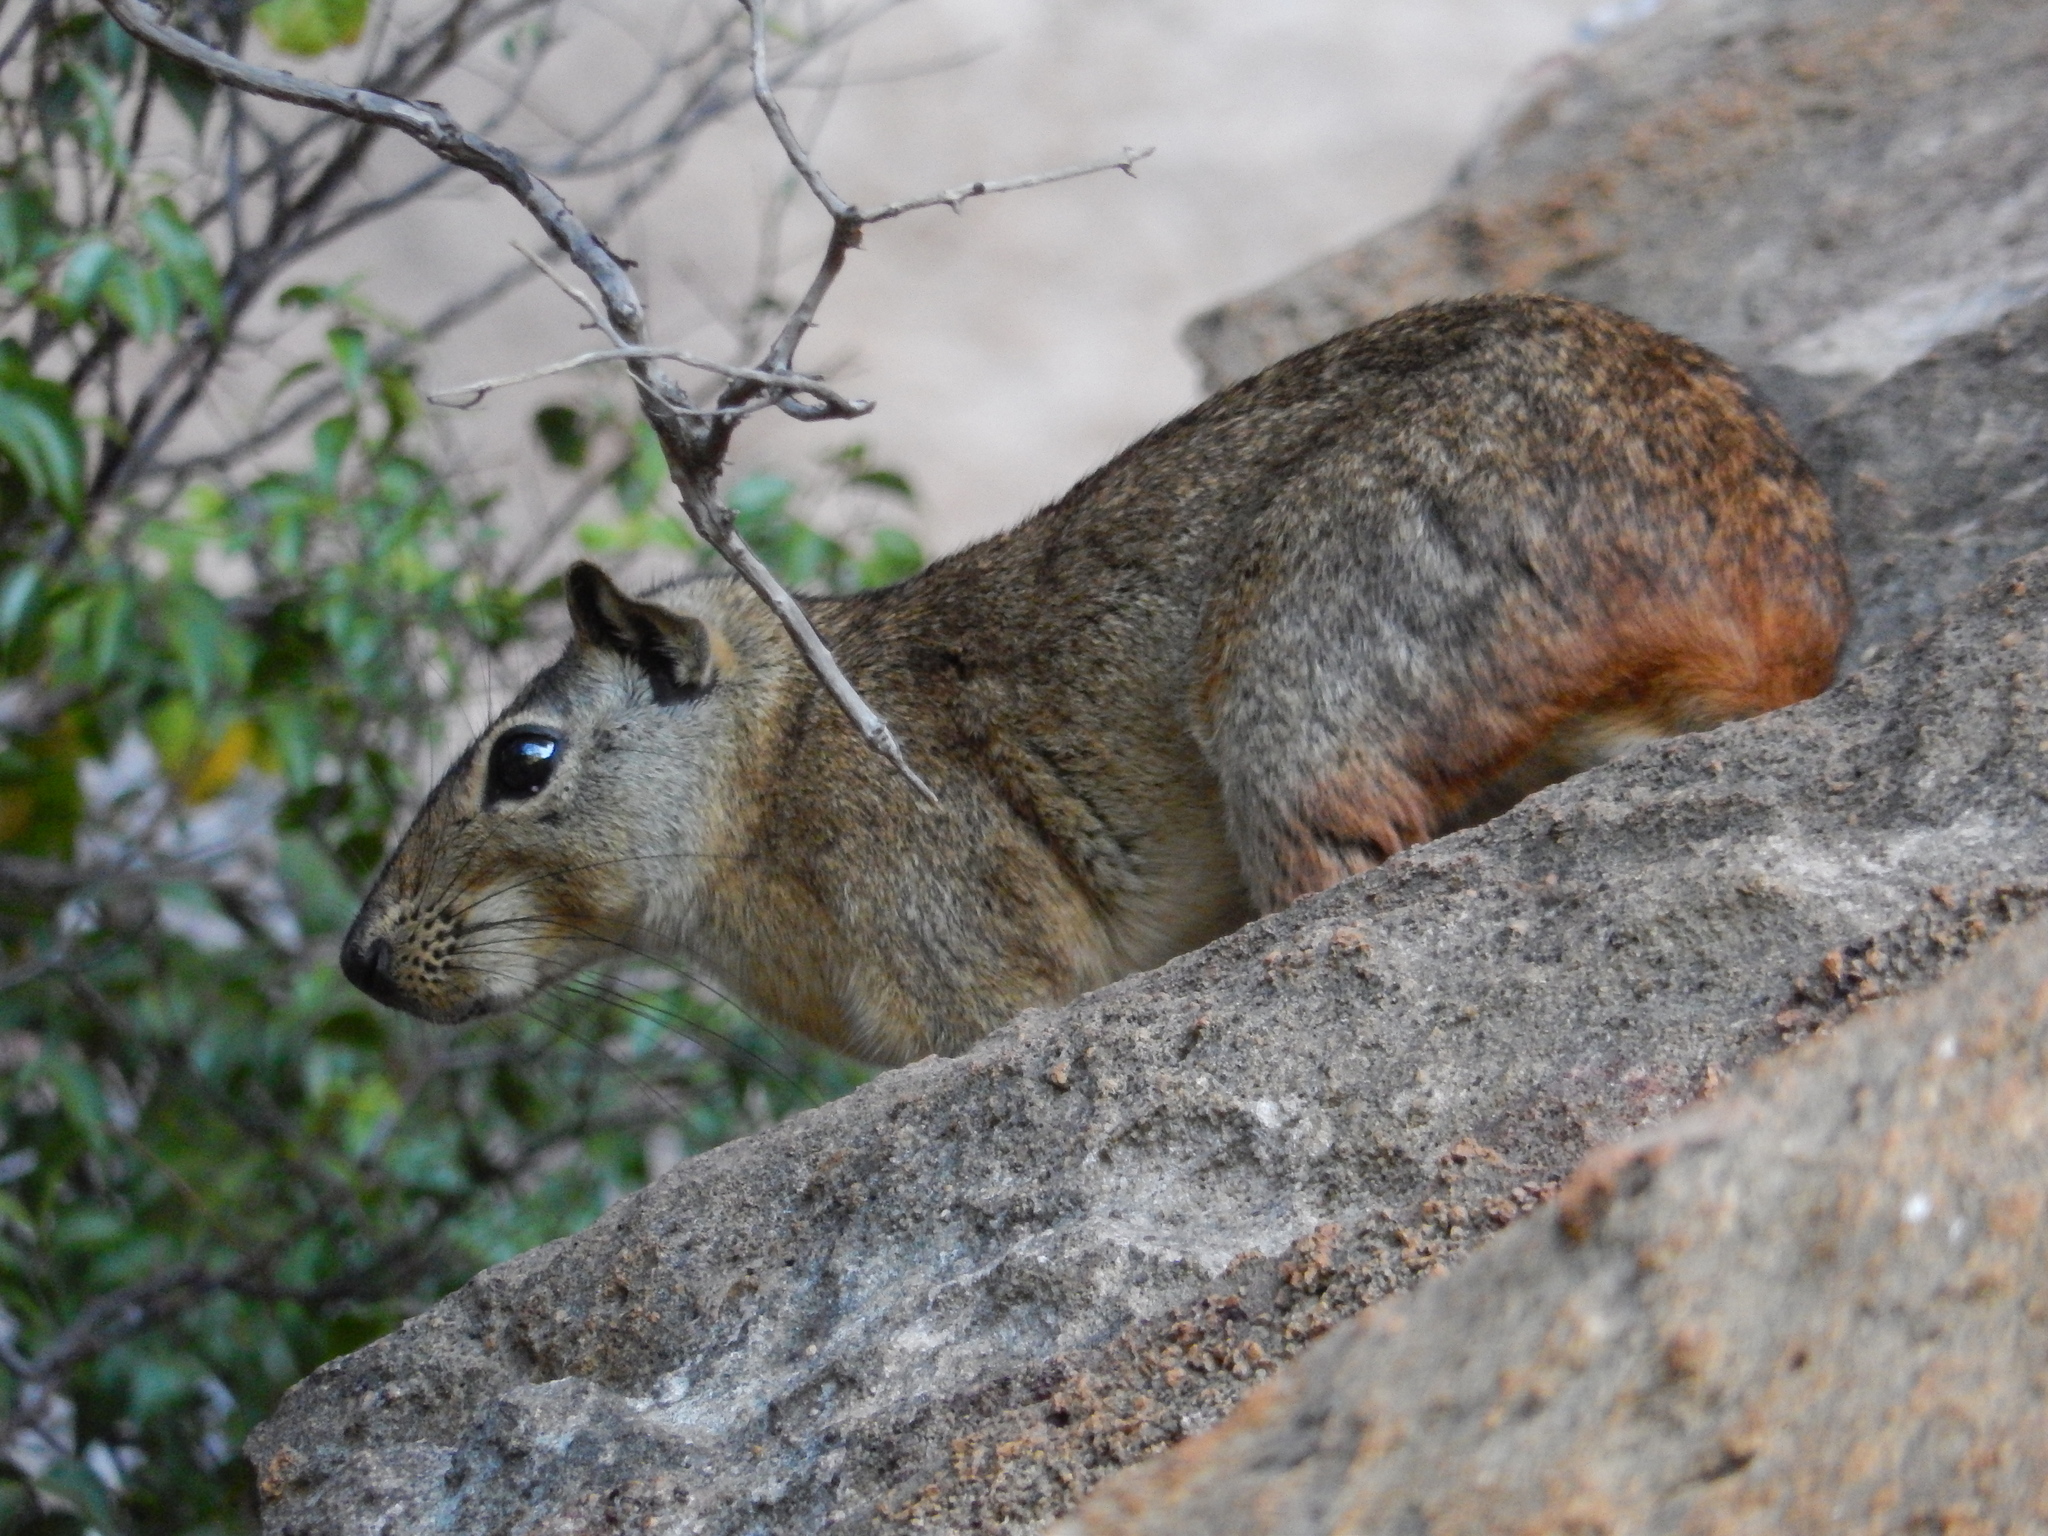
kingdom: Animalia
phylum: Chordata
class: Mammalia
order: Rodentia
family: Caviidae
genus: Kerodon
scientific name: Kerodon rupestris
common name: Rock cavy
